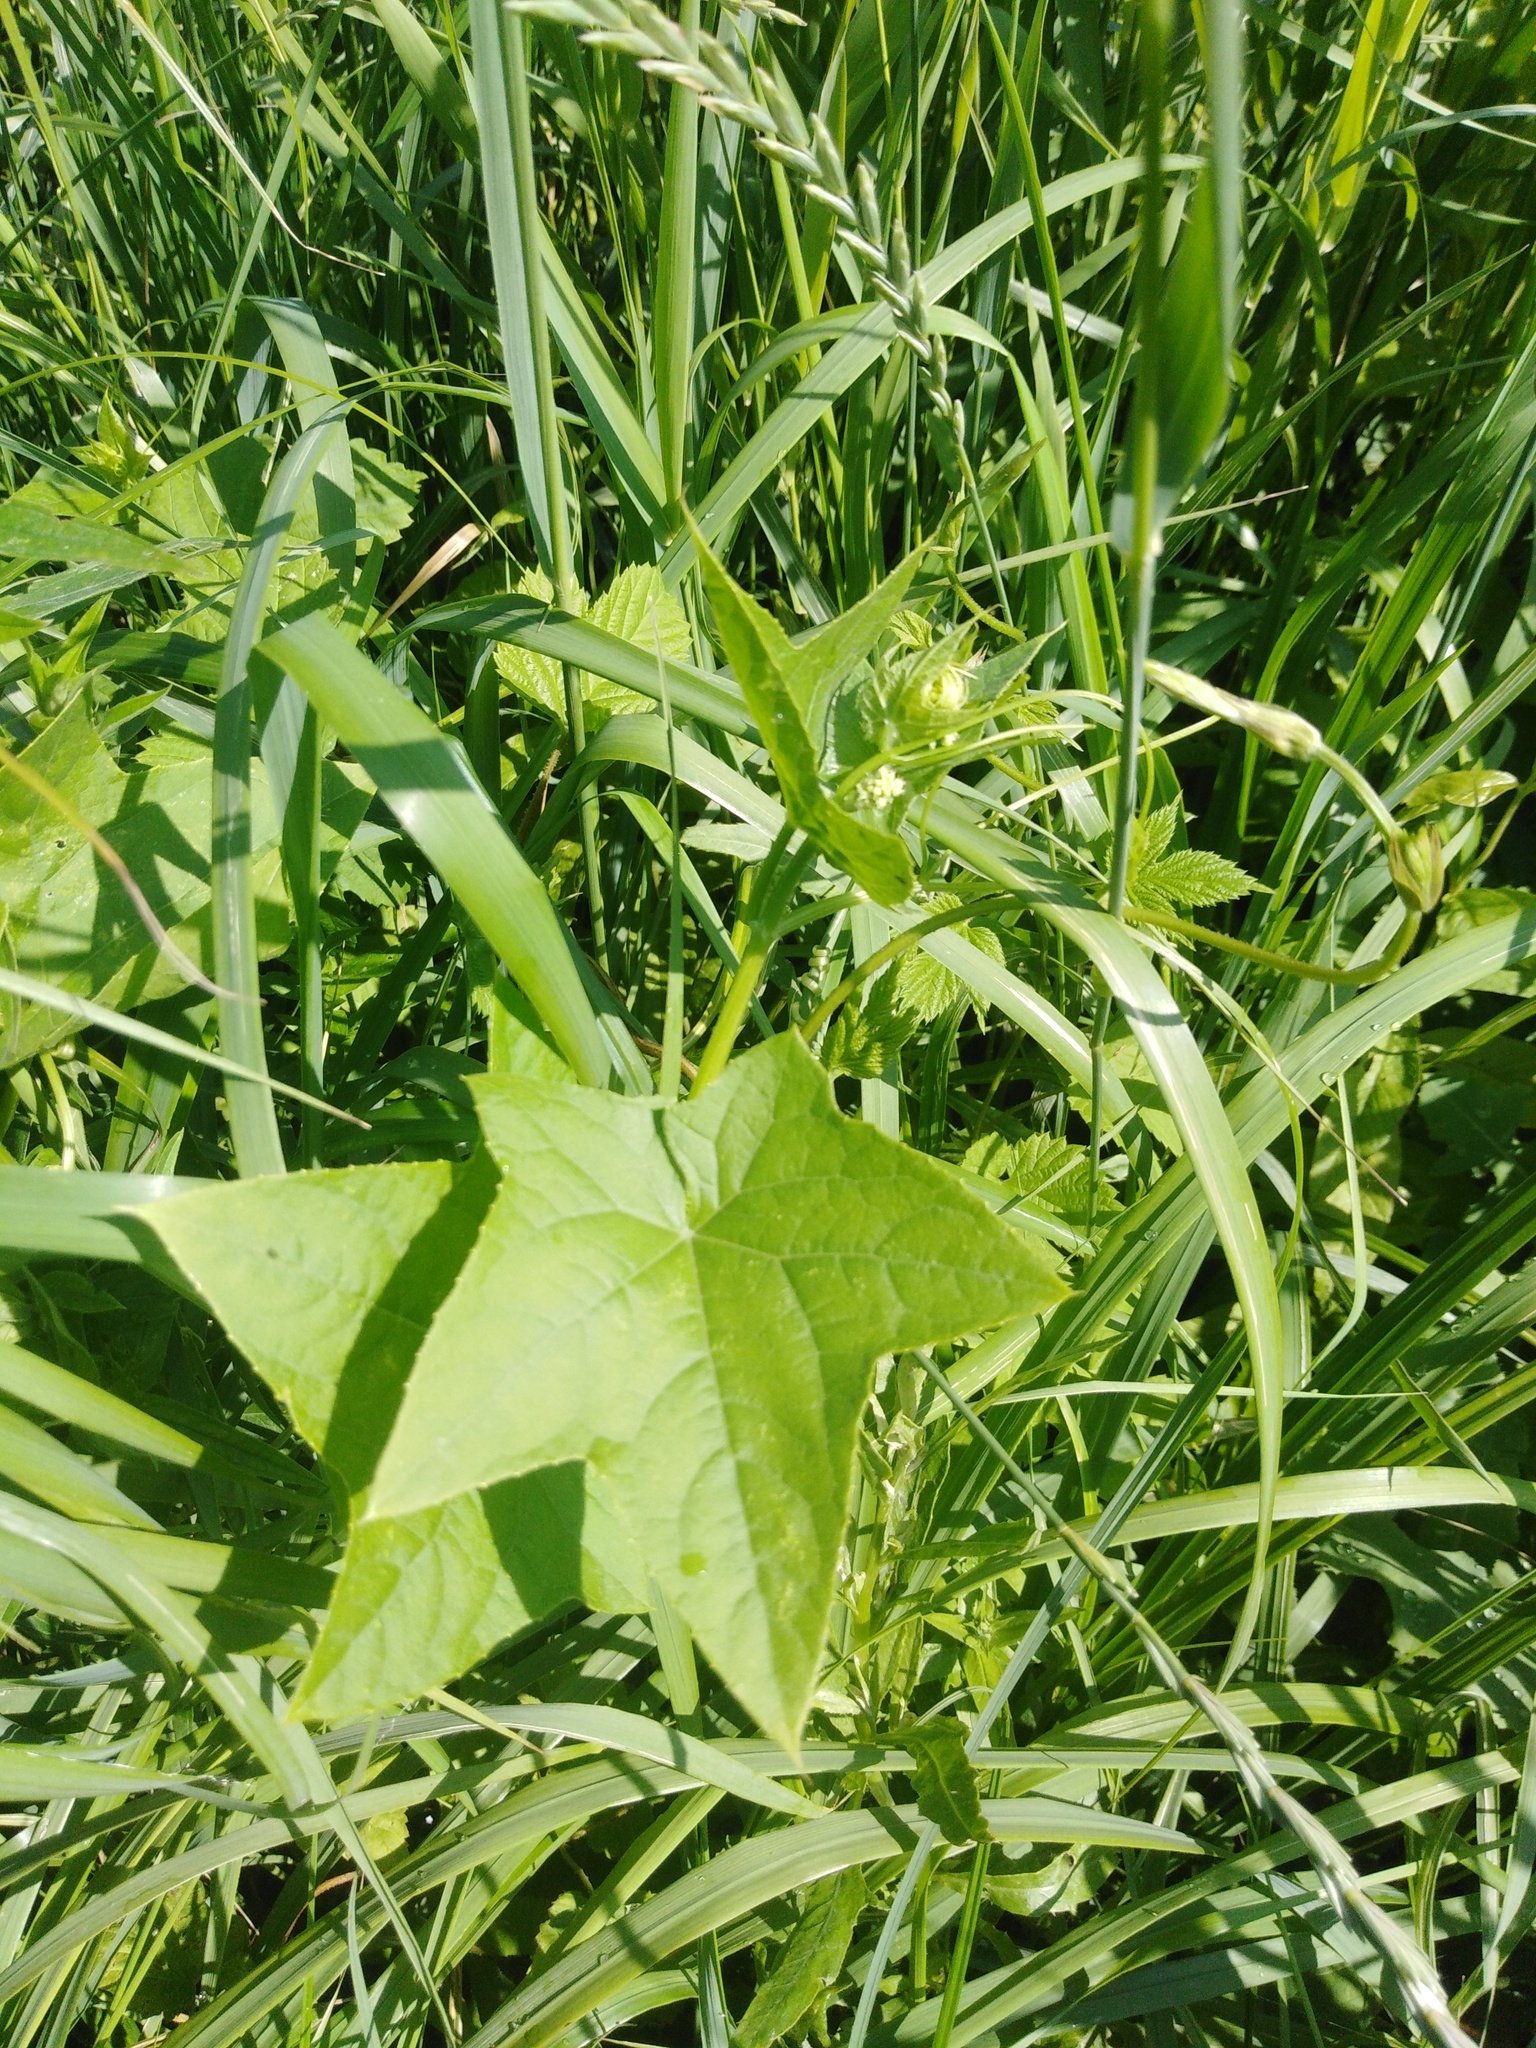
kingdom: Plantae
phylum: Tracheophyta
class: Magnoliopsida
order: Cucurbitales
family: Cucurbitaceae
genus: Echinocystis
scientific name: Echinocystis lobata
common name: Wild cucumber
